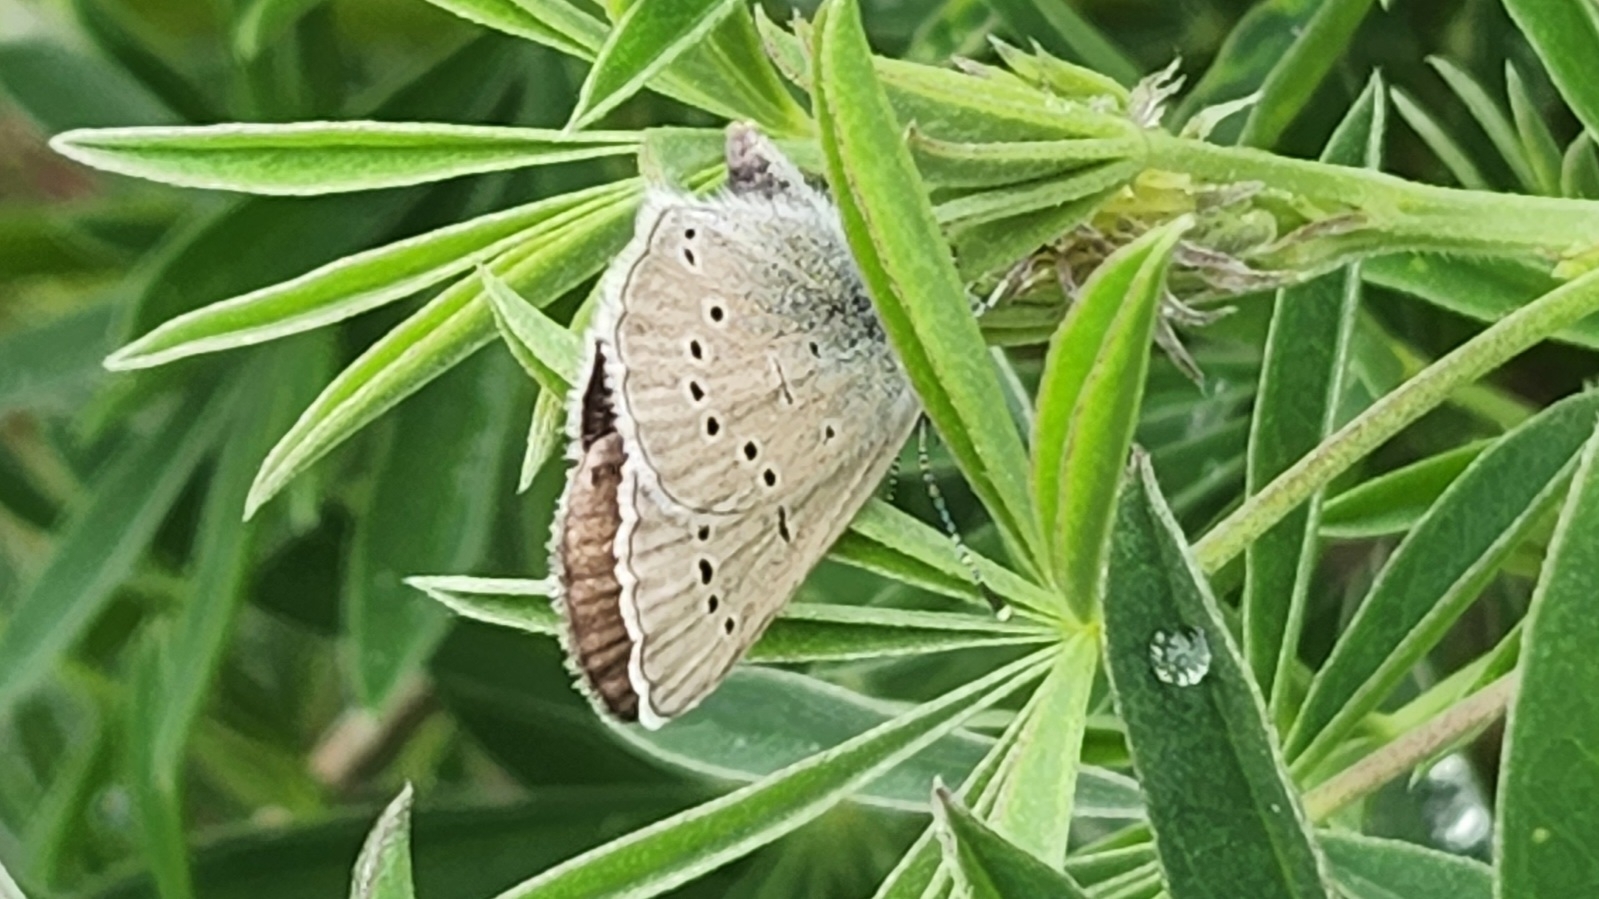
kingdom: Animalia
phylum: Arthropoda
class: Insecta
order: Lepidoptera
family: Lycaenidae
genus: Glaucopsyche
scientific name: Glaucopsyche lygdamus
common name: Silvery blue
